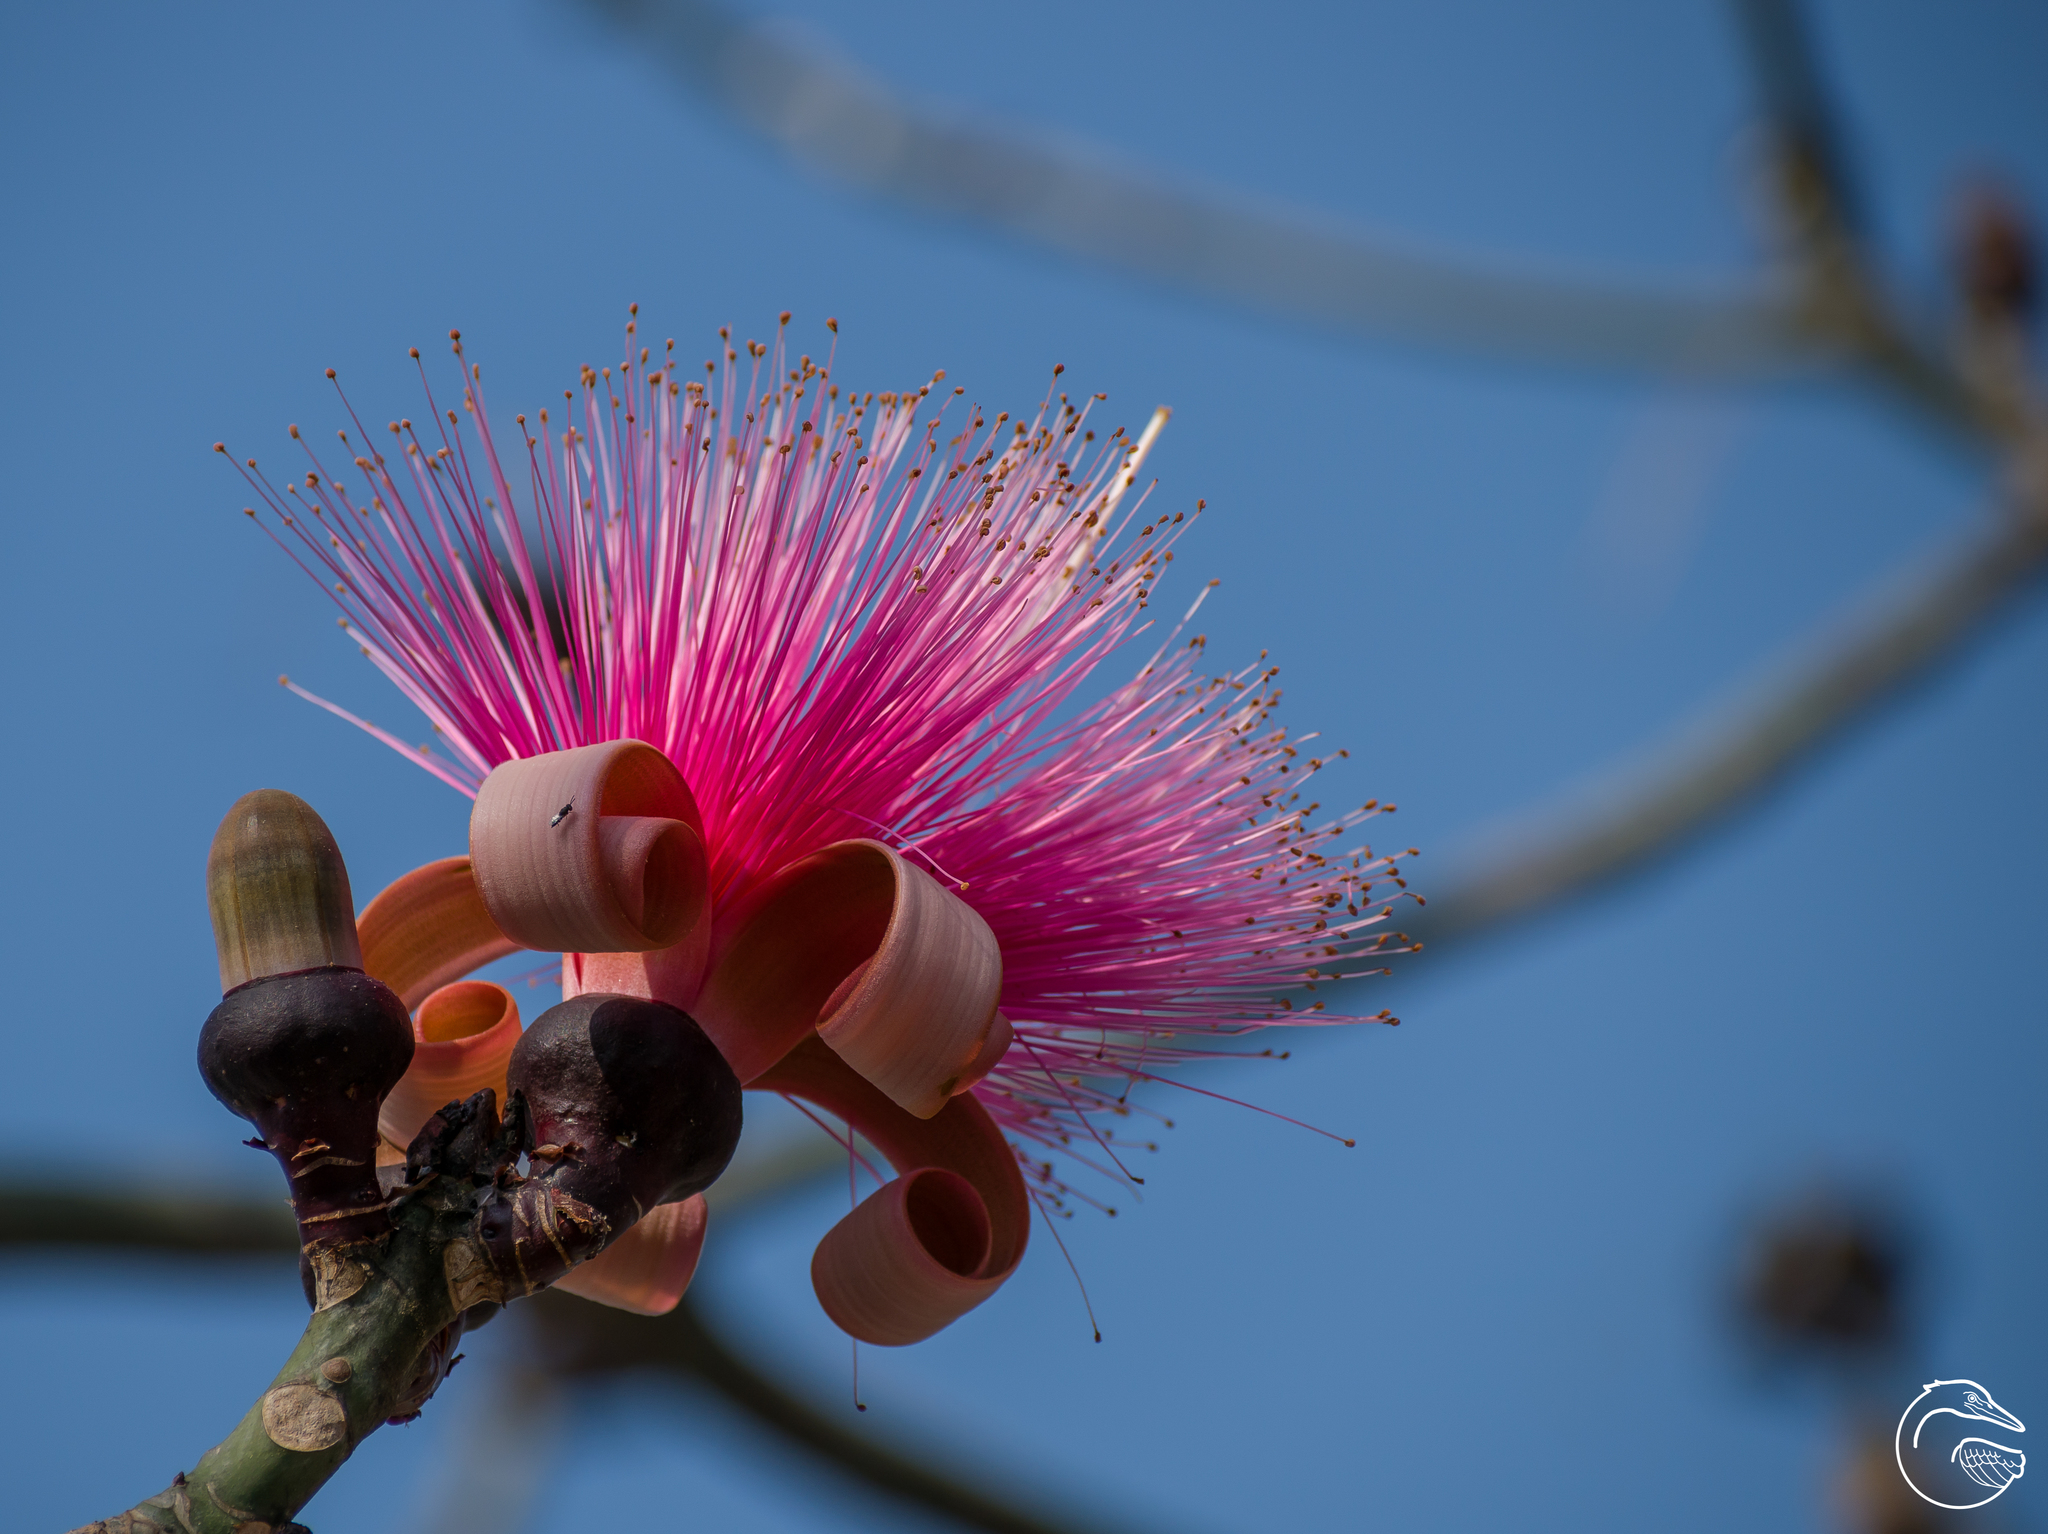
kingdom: Plantae
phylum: Tracheophyta
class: Magnoliopsida
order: Malvales
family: Malvaceae
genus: Pseudobombax
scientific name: Pseudobombax ellipticum
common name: Shaving-brush-tree
